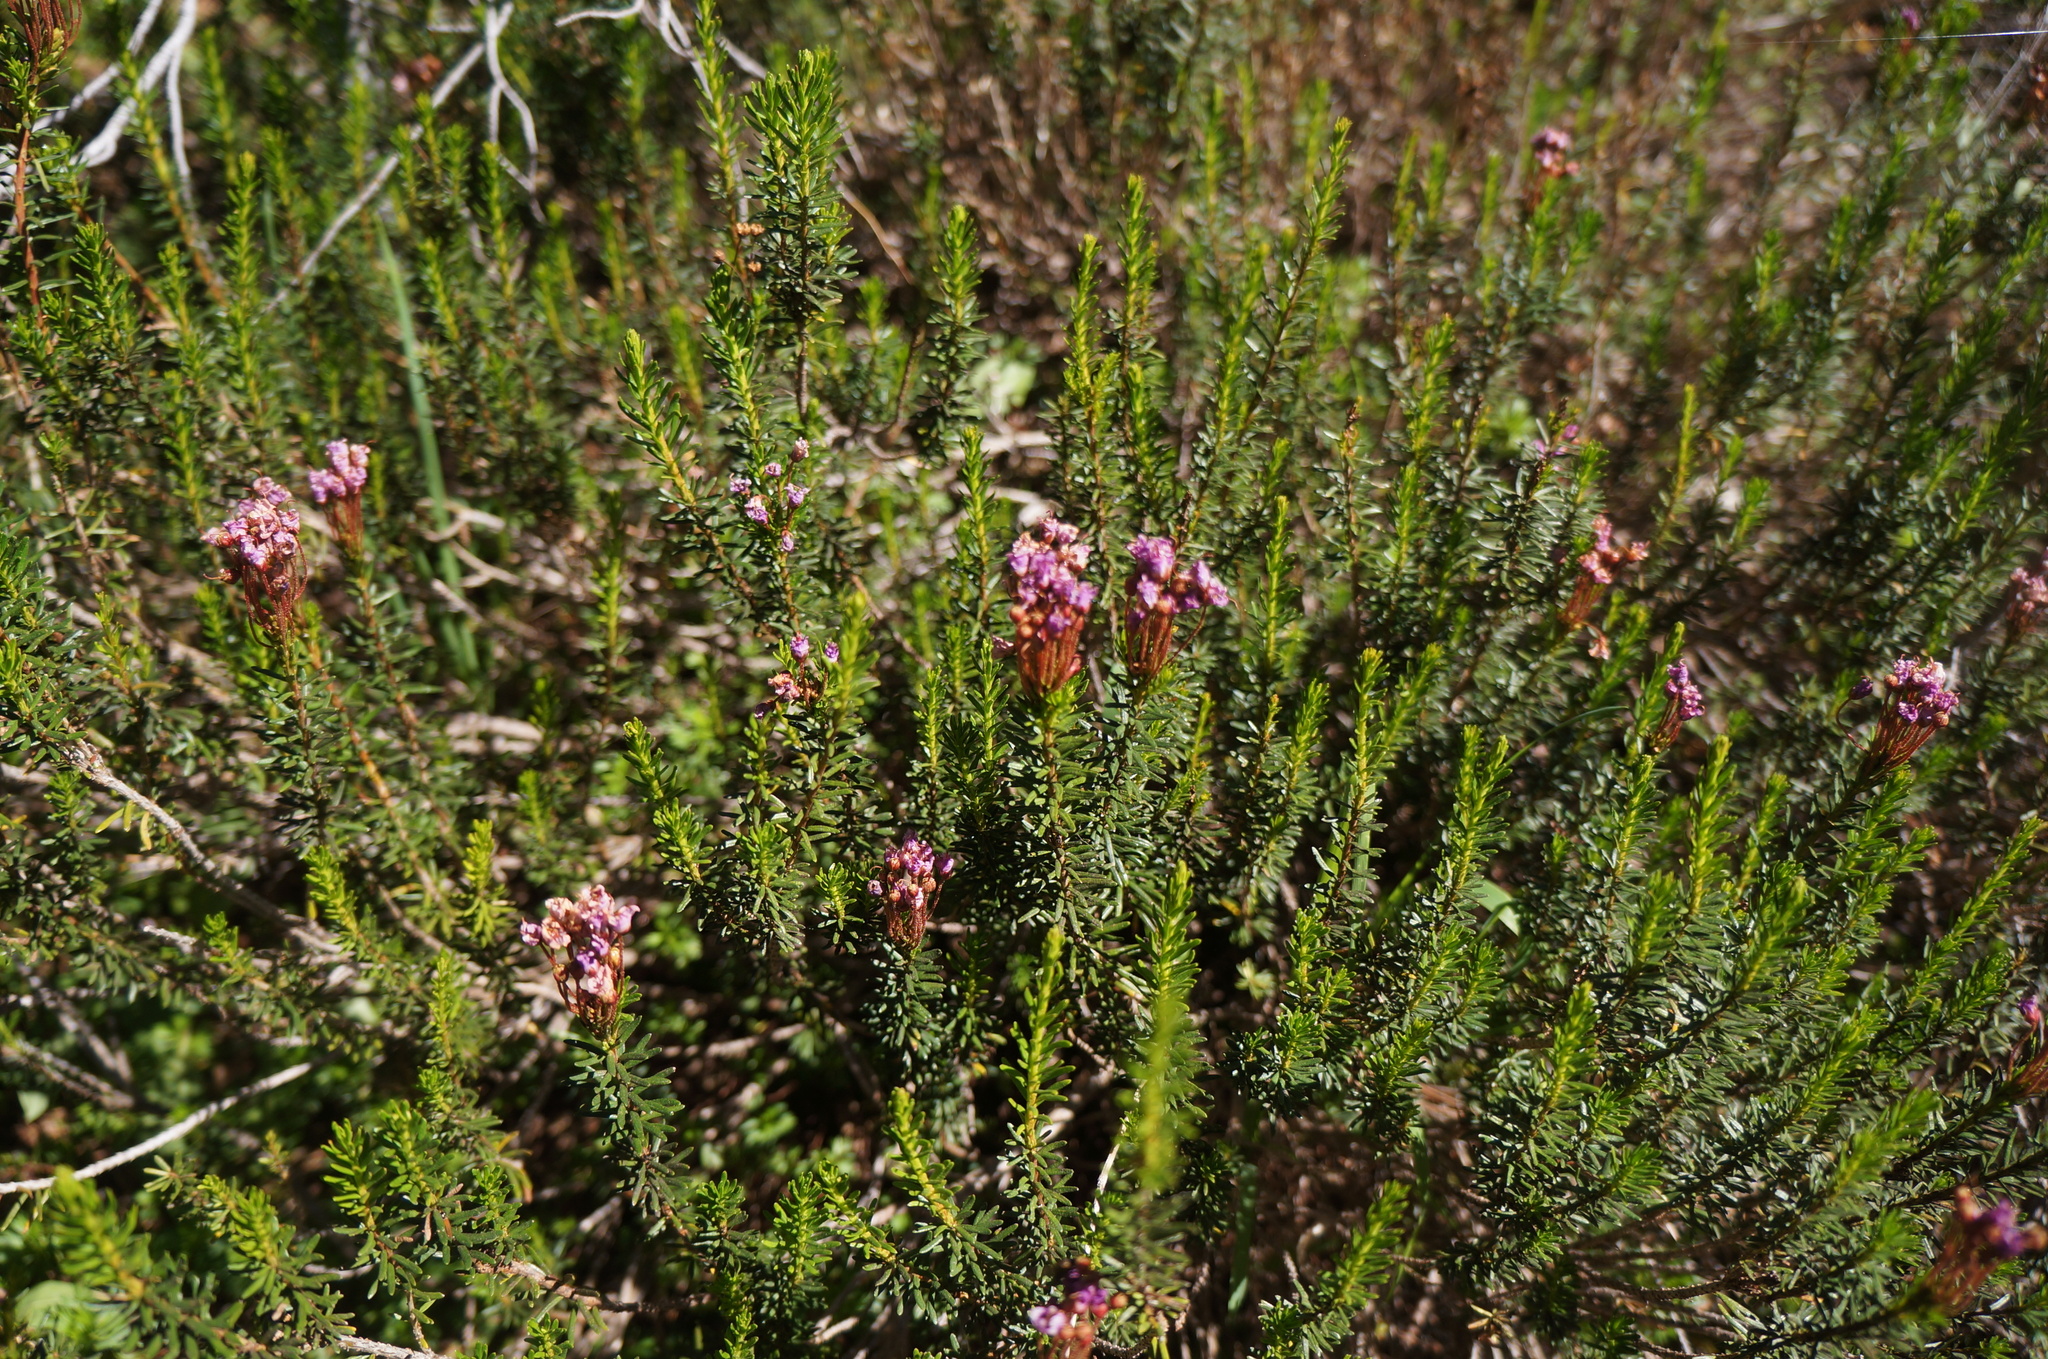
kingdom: Plantae
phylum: Tracheophyta
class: Magnoliopsida
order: Ericales
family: Ericaceae
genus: Phyllodoce
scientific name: Phyllodoce empetriformis
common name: Pink mountain heather
